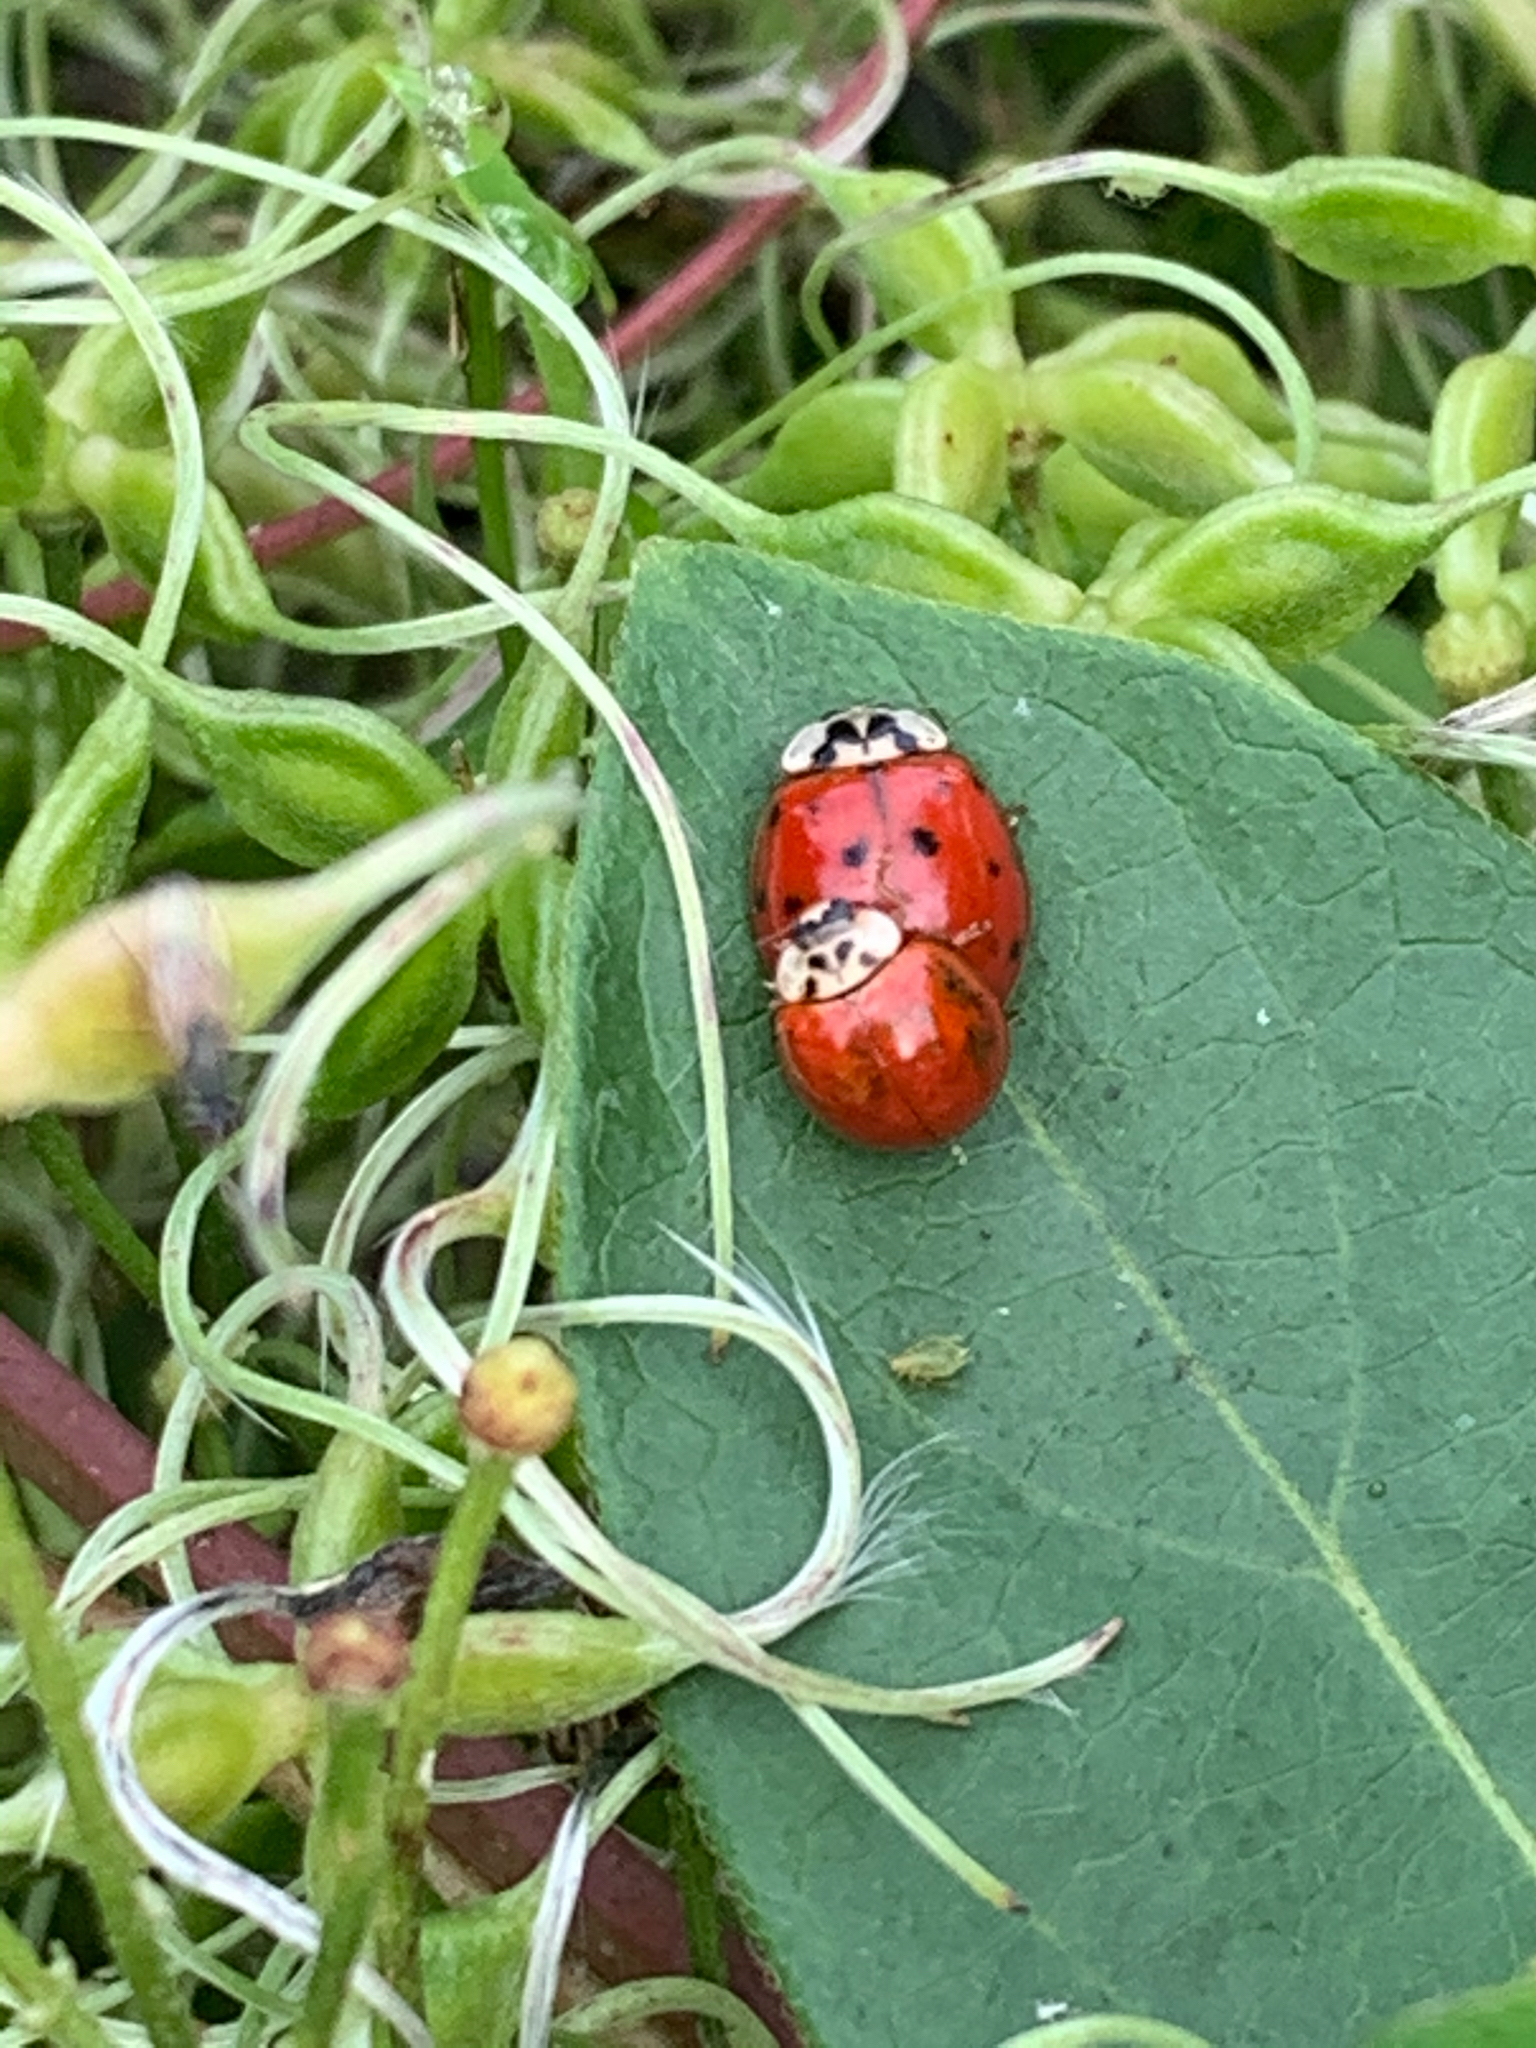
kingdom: Animalia
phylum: Arthropoda
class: Insecta
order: Coleoptera
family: Coccinellidae
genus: Harmonia
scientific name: Harmonia axyridis
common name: Harlequin ladybird
